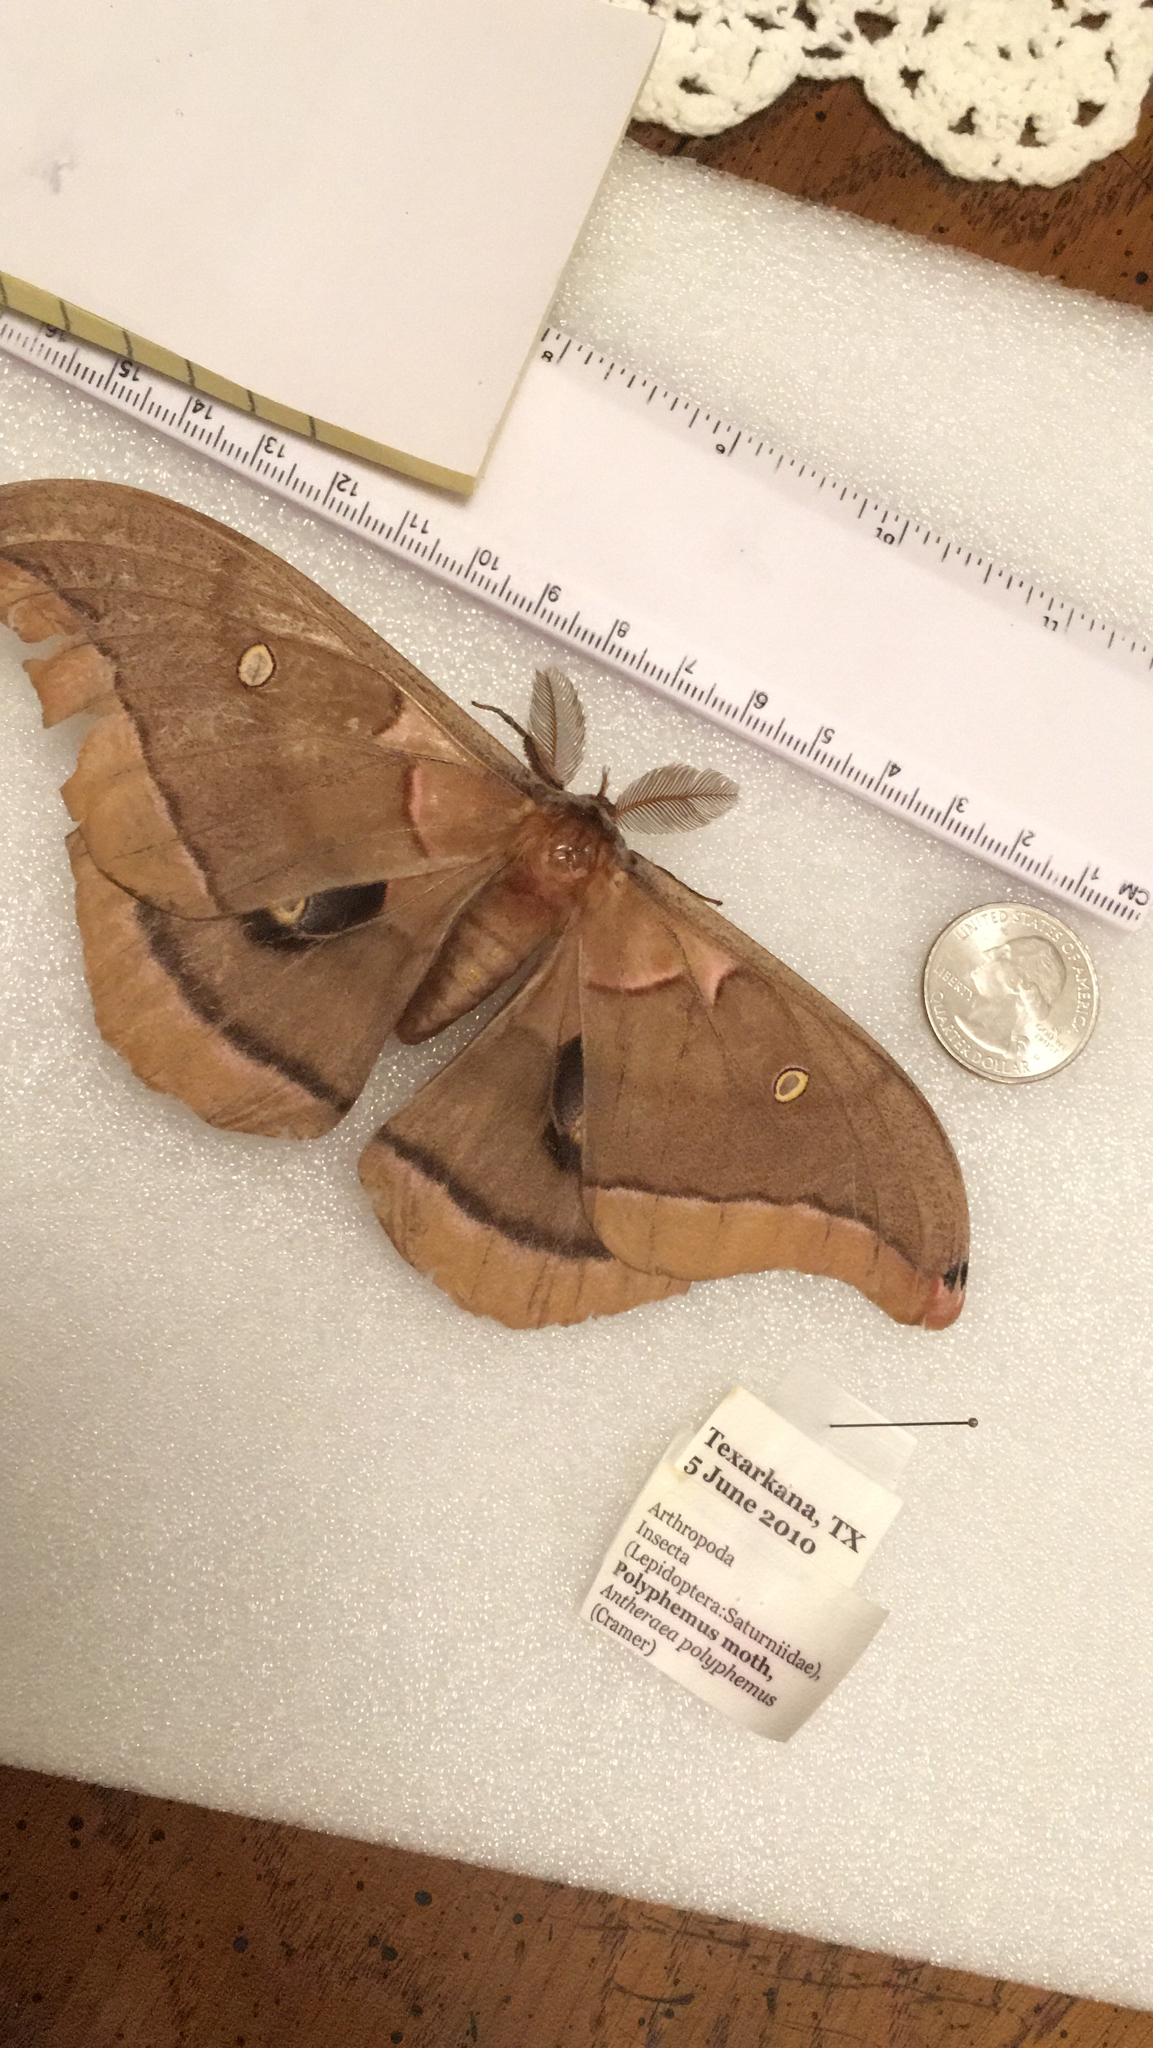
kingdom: Animalia
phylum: Arthropoda
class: Insecta
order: Lepidoptera
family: Saturniidae
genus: Antheraea
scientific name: Antheraea polyphemus
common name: Polyphemus moth
